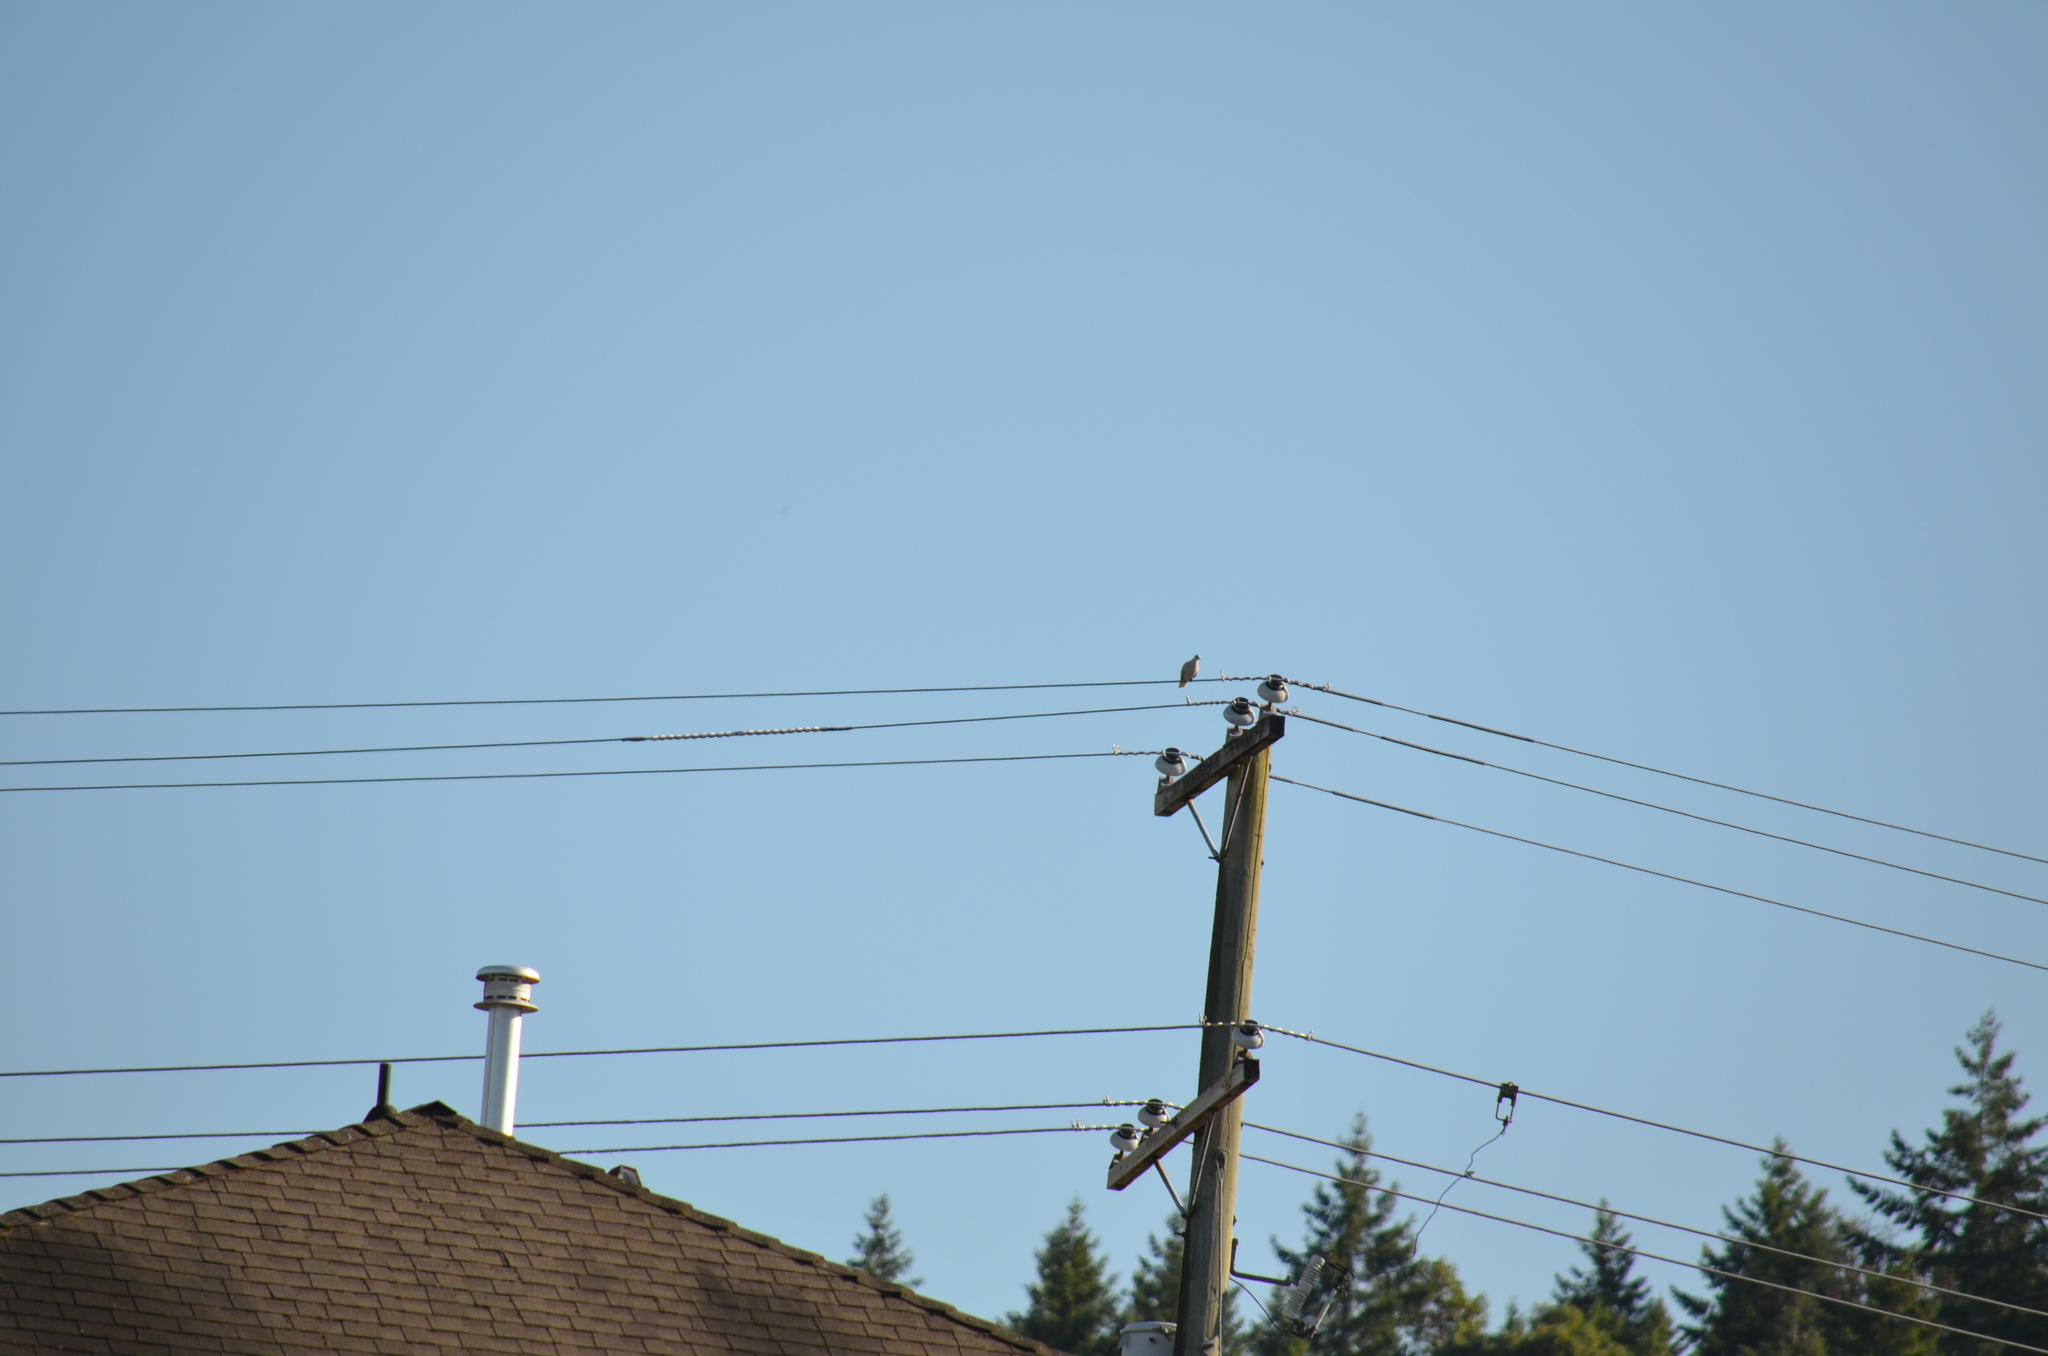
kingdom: Animalia
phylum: Chordata
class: Aves
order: Columbiformes
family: Columbidae
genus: Streptopelia
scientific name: Streptopelia decaocto
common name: Eurasian collared dove
